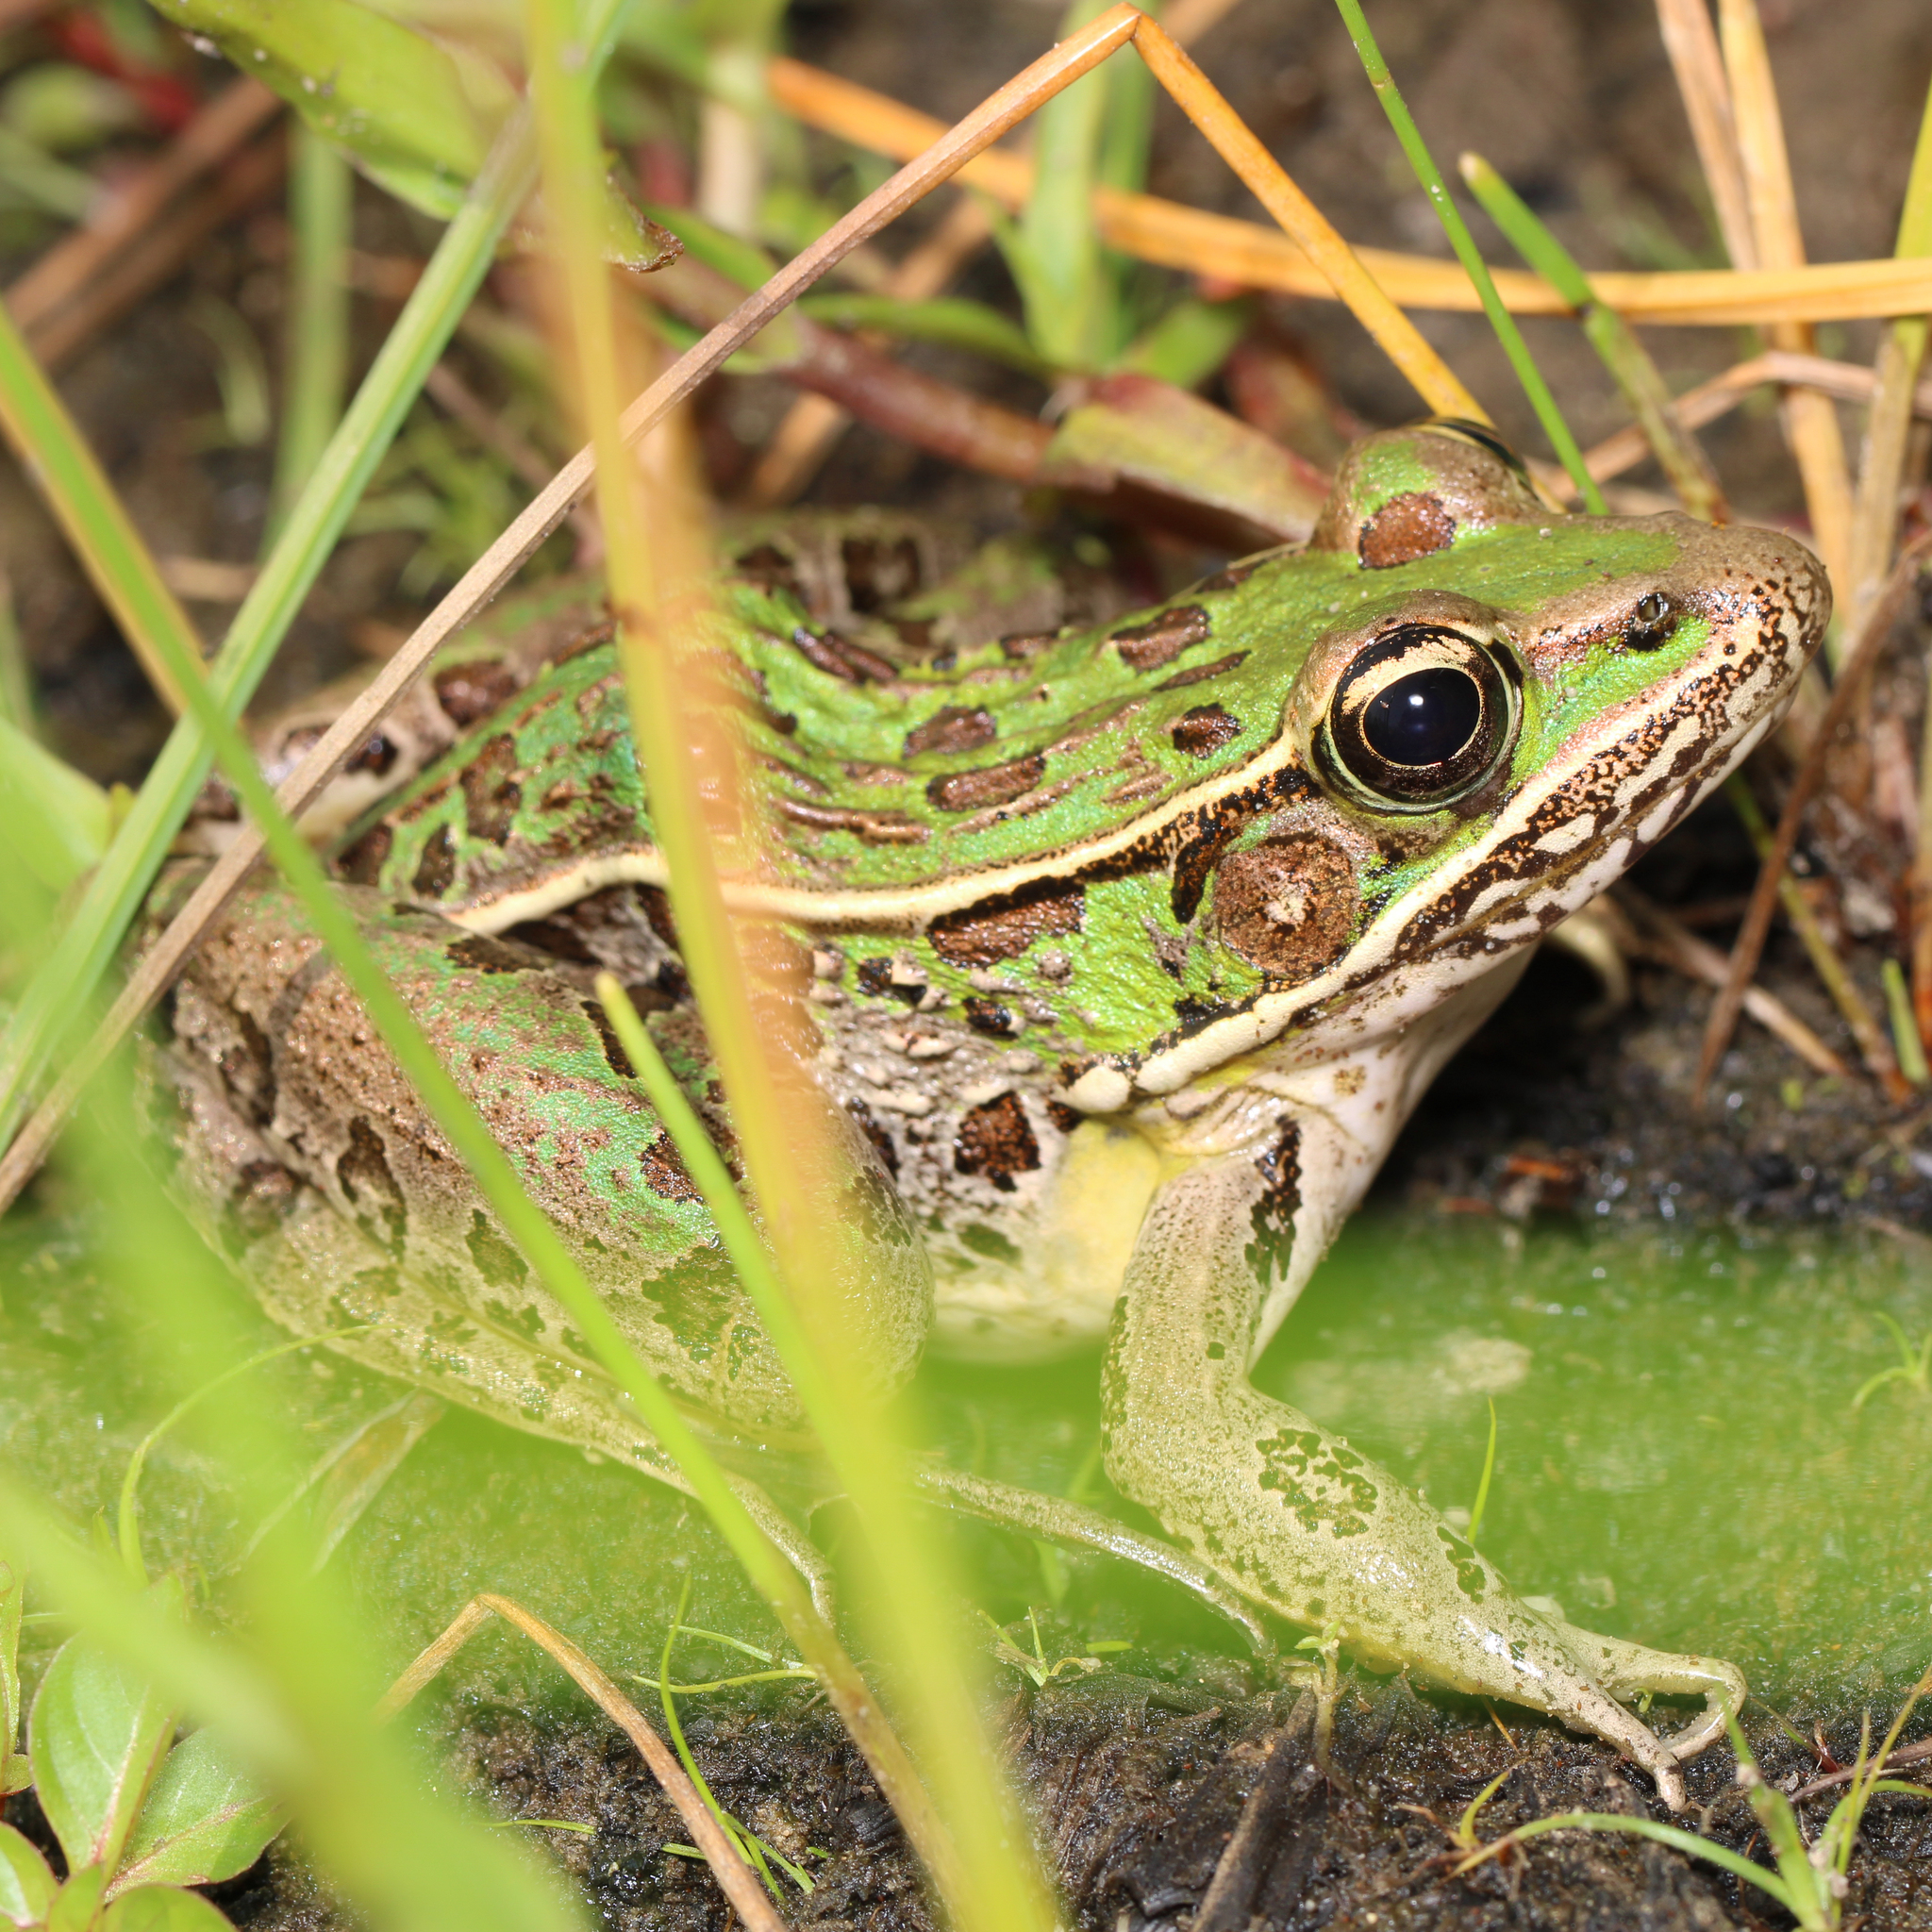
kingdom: Animalia
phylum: Chordata
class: Amphibia
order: Anura
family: Ranidae
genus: Lithobates
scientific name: Lithobates sphenocephalus
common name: Southern leopard frog
